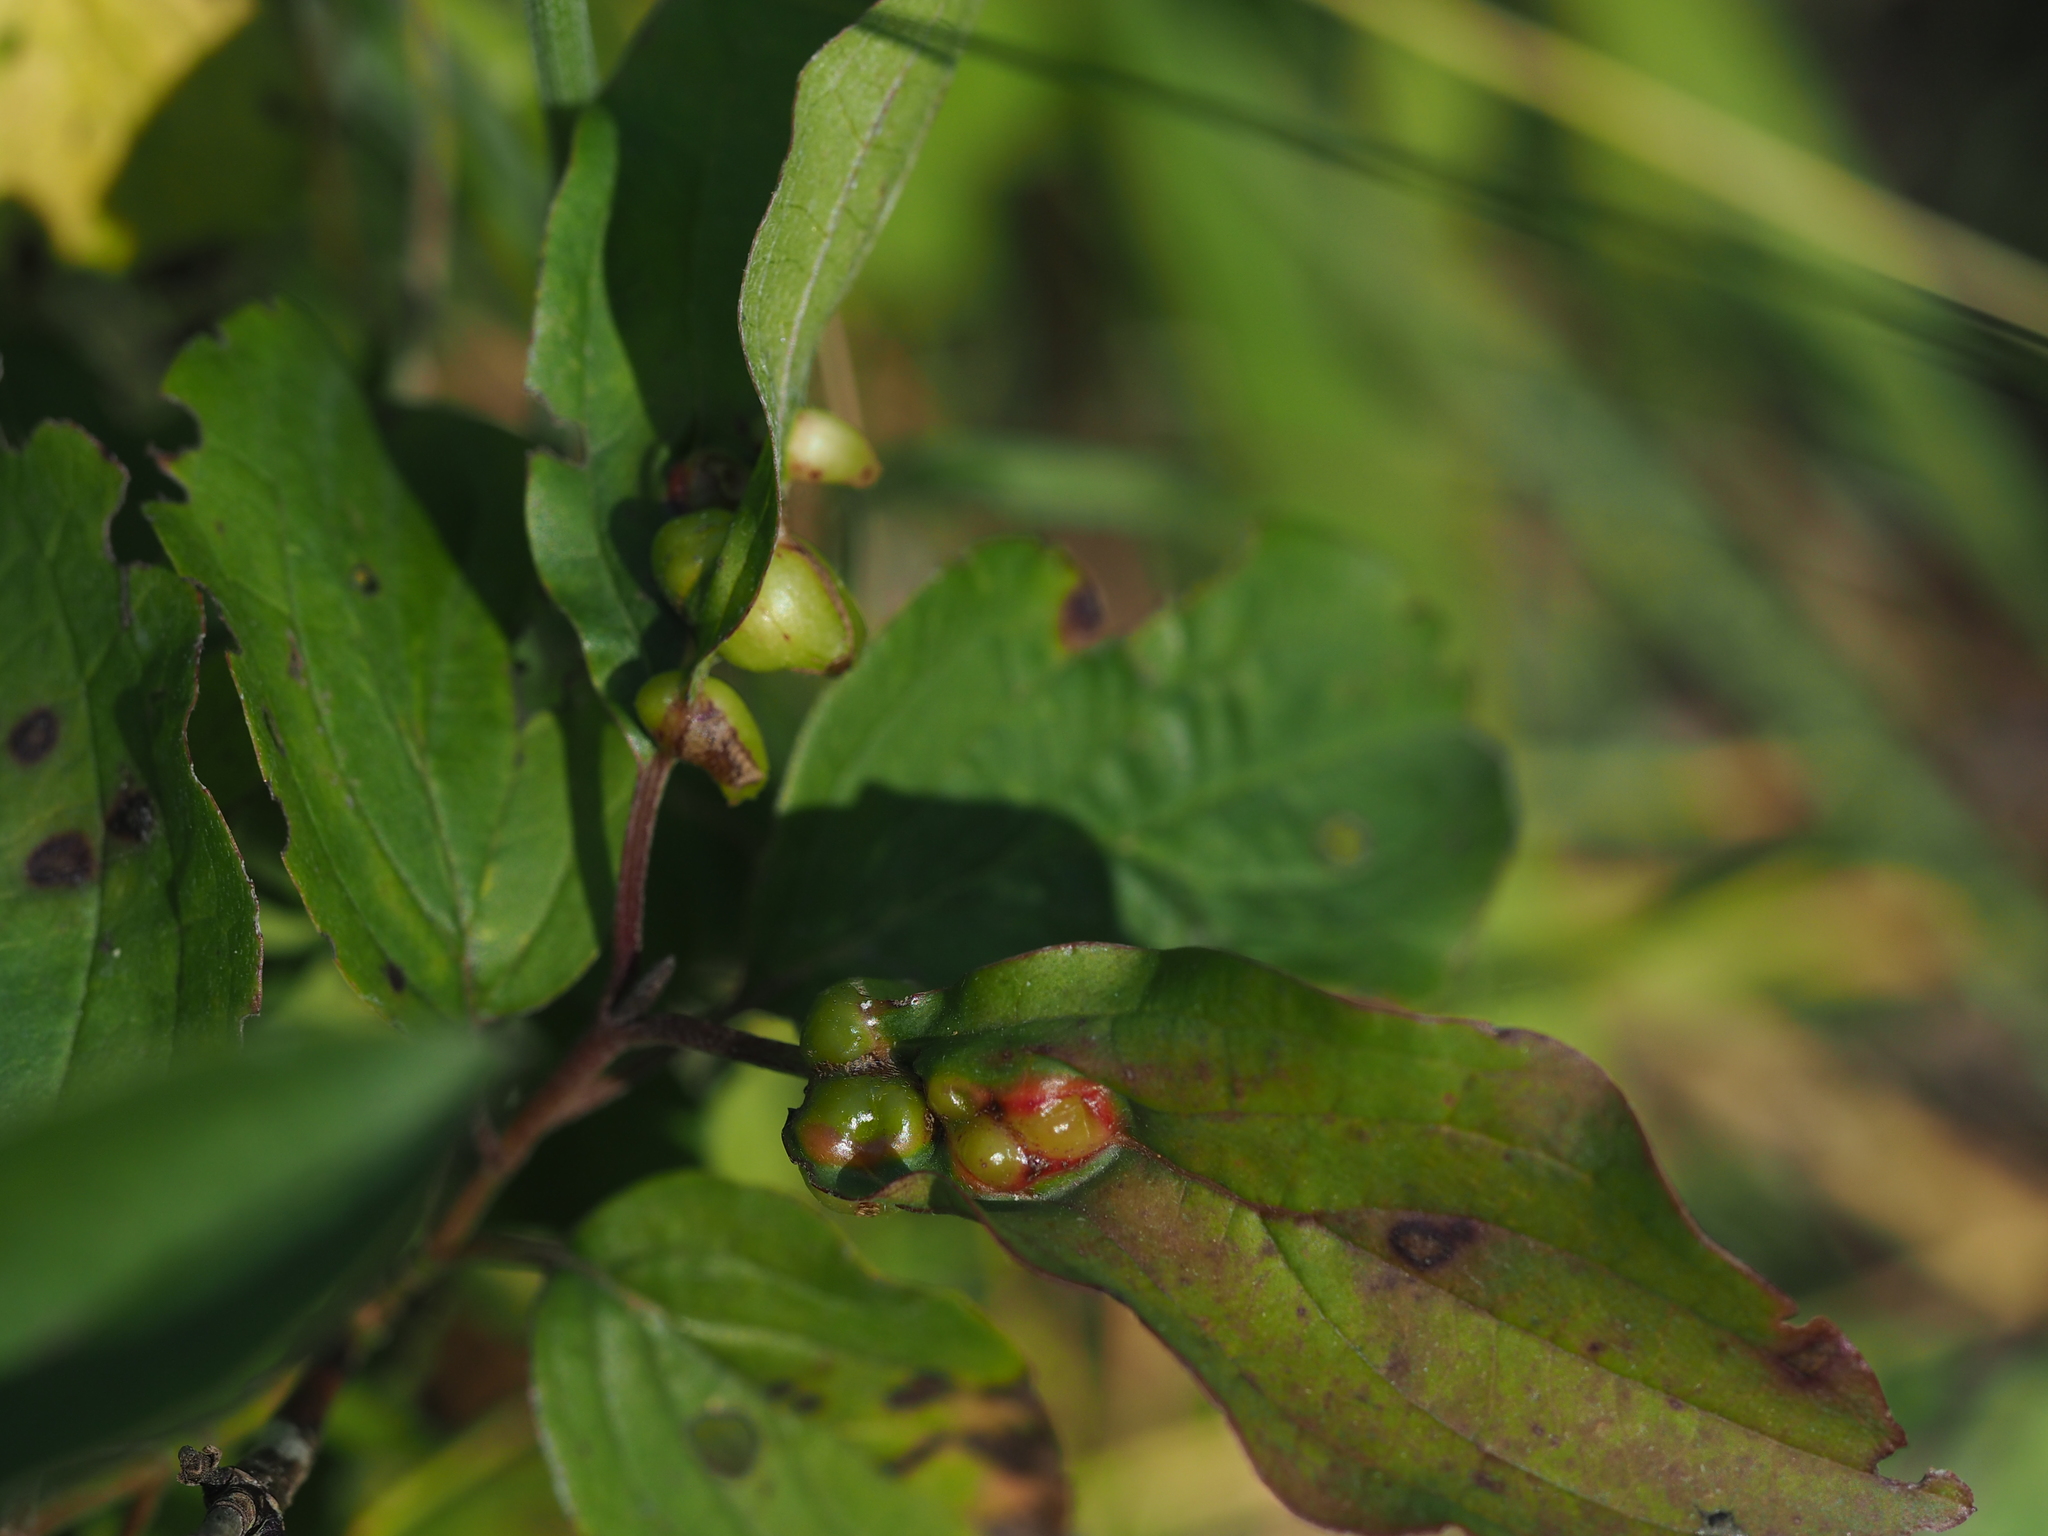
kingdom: Animalia
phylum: Arthropoda
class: Insecta
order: Diptera
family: Cecidomyiidae
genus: Craneiobia
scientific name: Craneiobia corni
